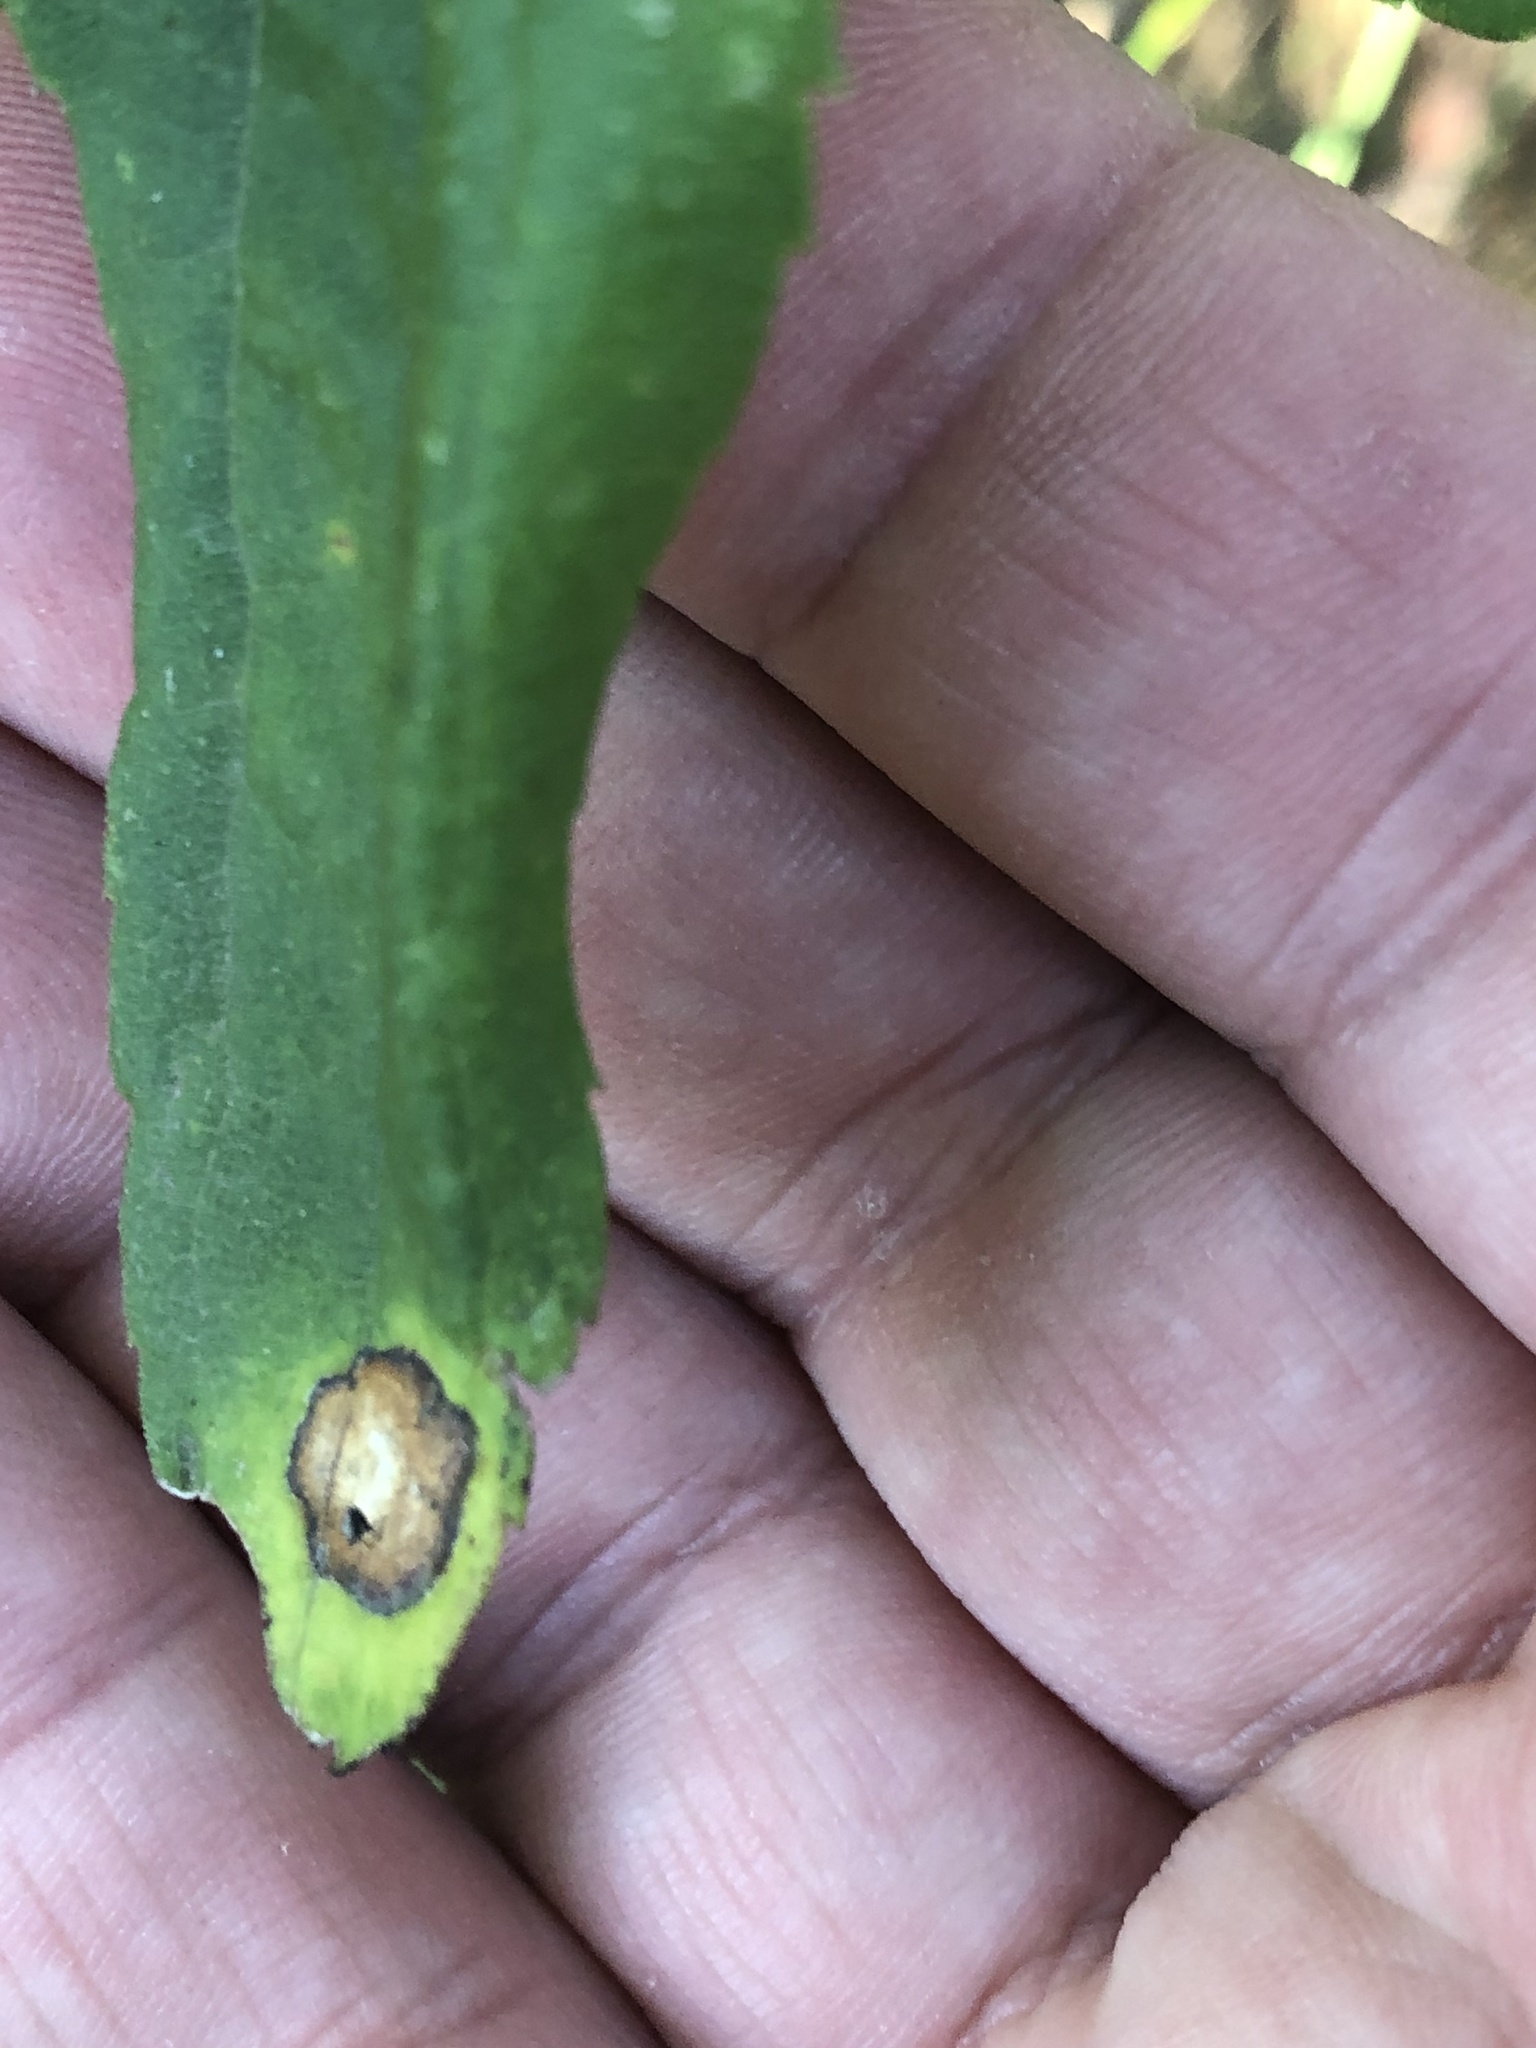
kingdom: Animalia
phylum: Arthropoda
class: Insecta
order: Diptera
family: Cecidomyiidae
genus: Asteromyia
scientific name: Asteromyia carbonifera
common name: Carbonifera goldenrod gall midge
